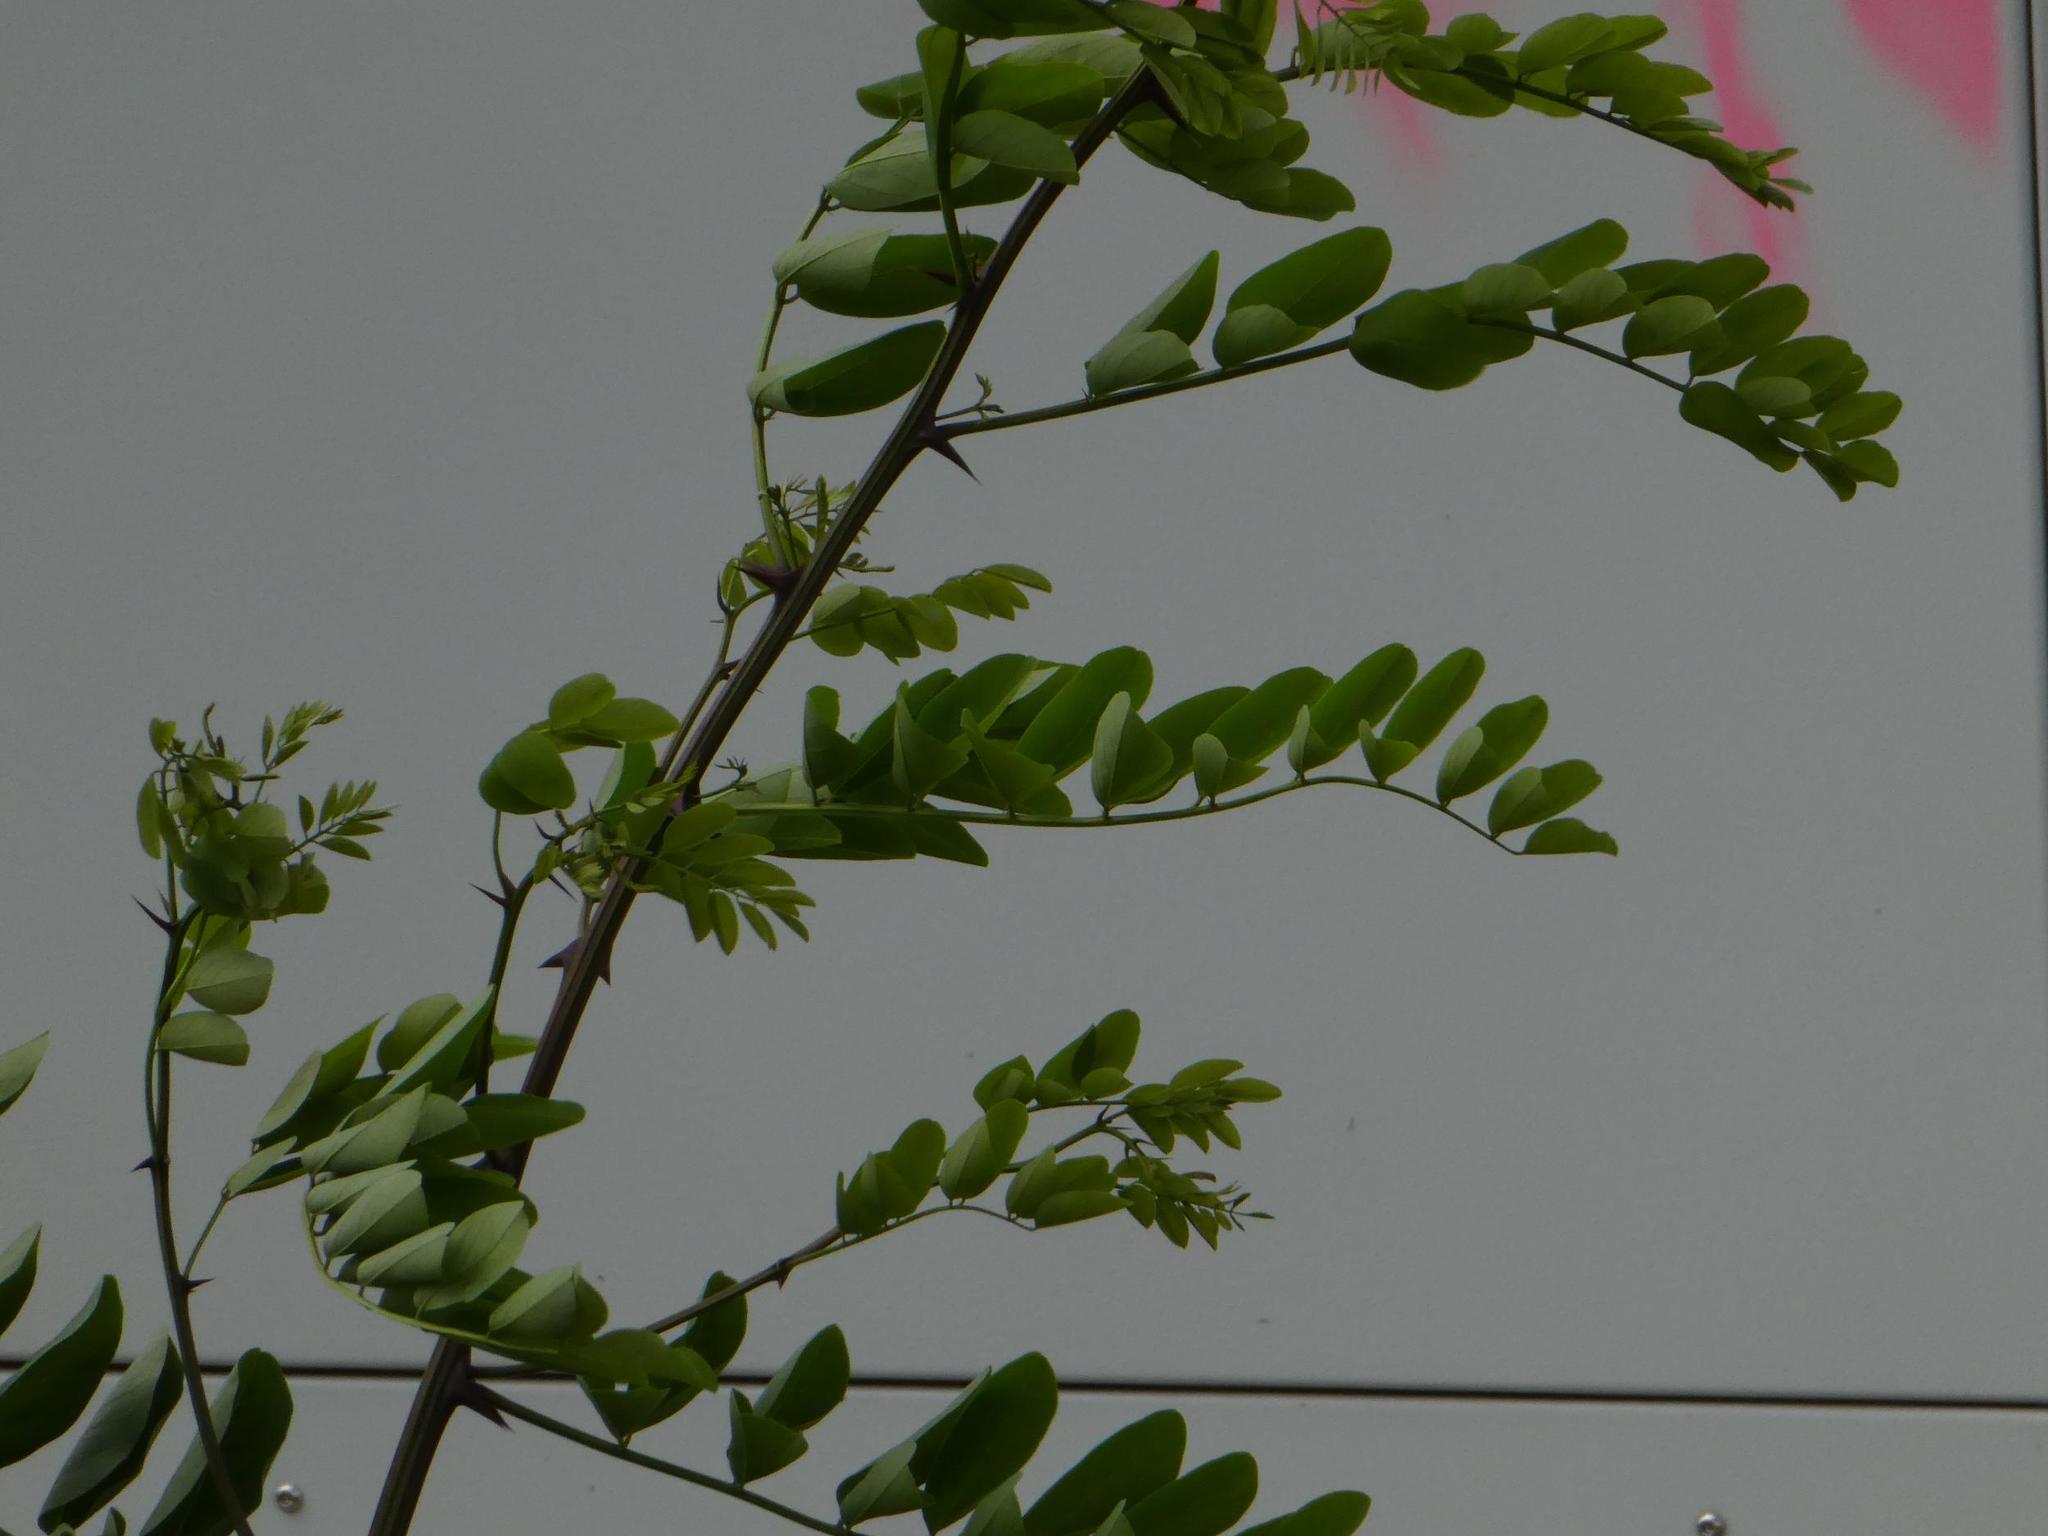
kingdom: Plantae
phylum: Tracheophyta
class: Magnoliopsida
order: Fabales
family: Fabaceae
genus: Robinia
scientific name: Robinia pseudoacacia
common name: Black locust
